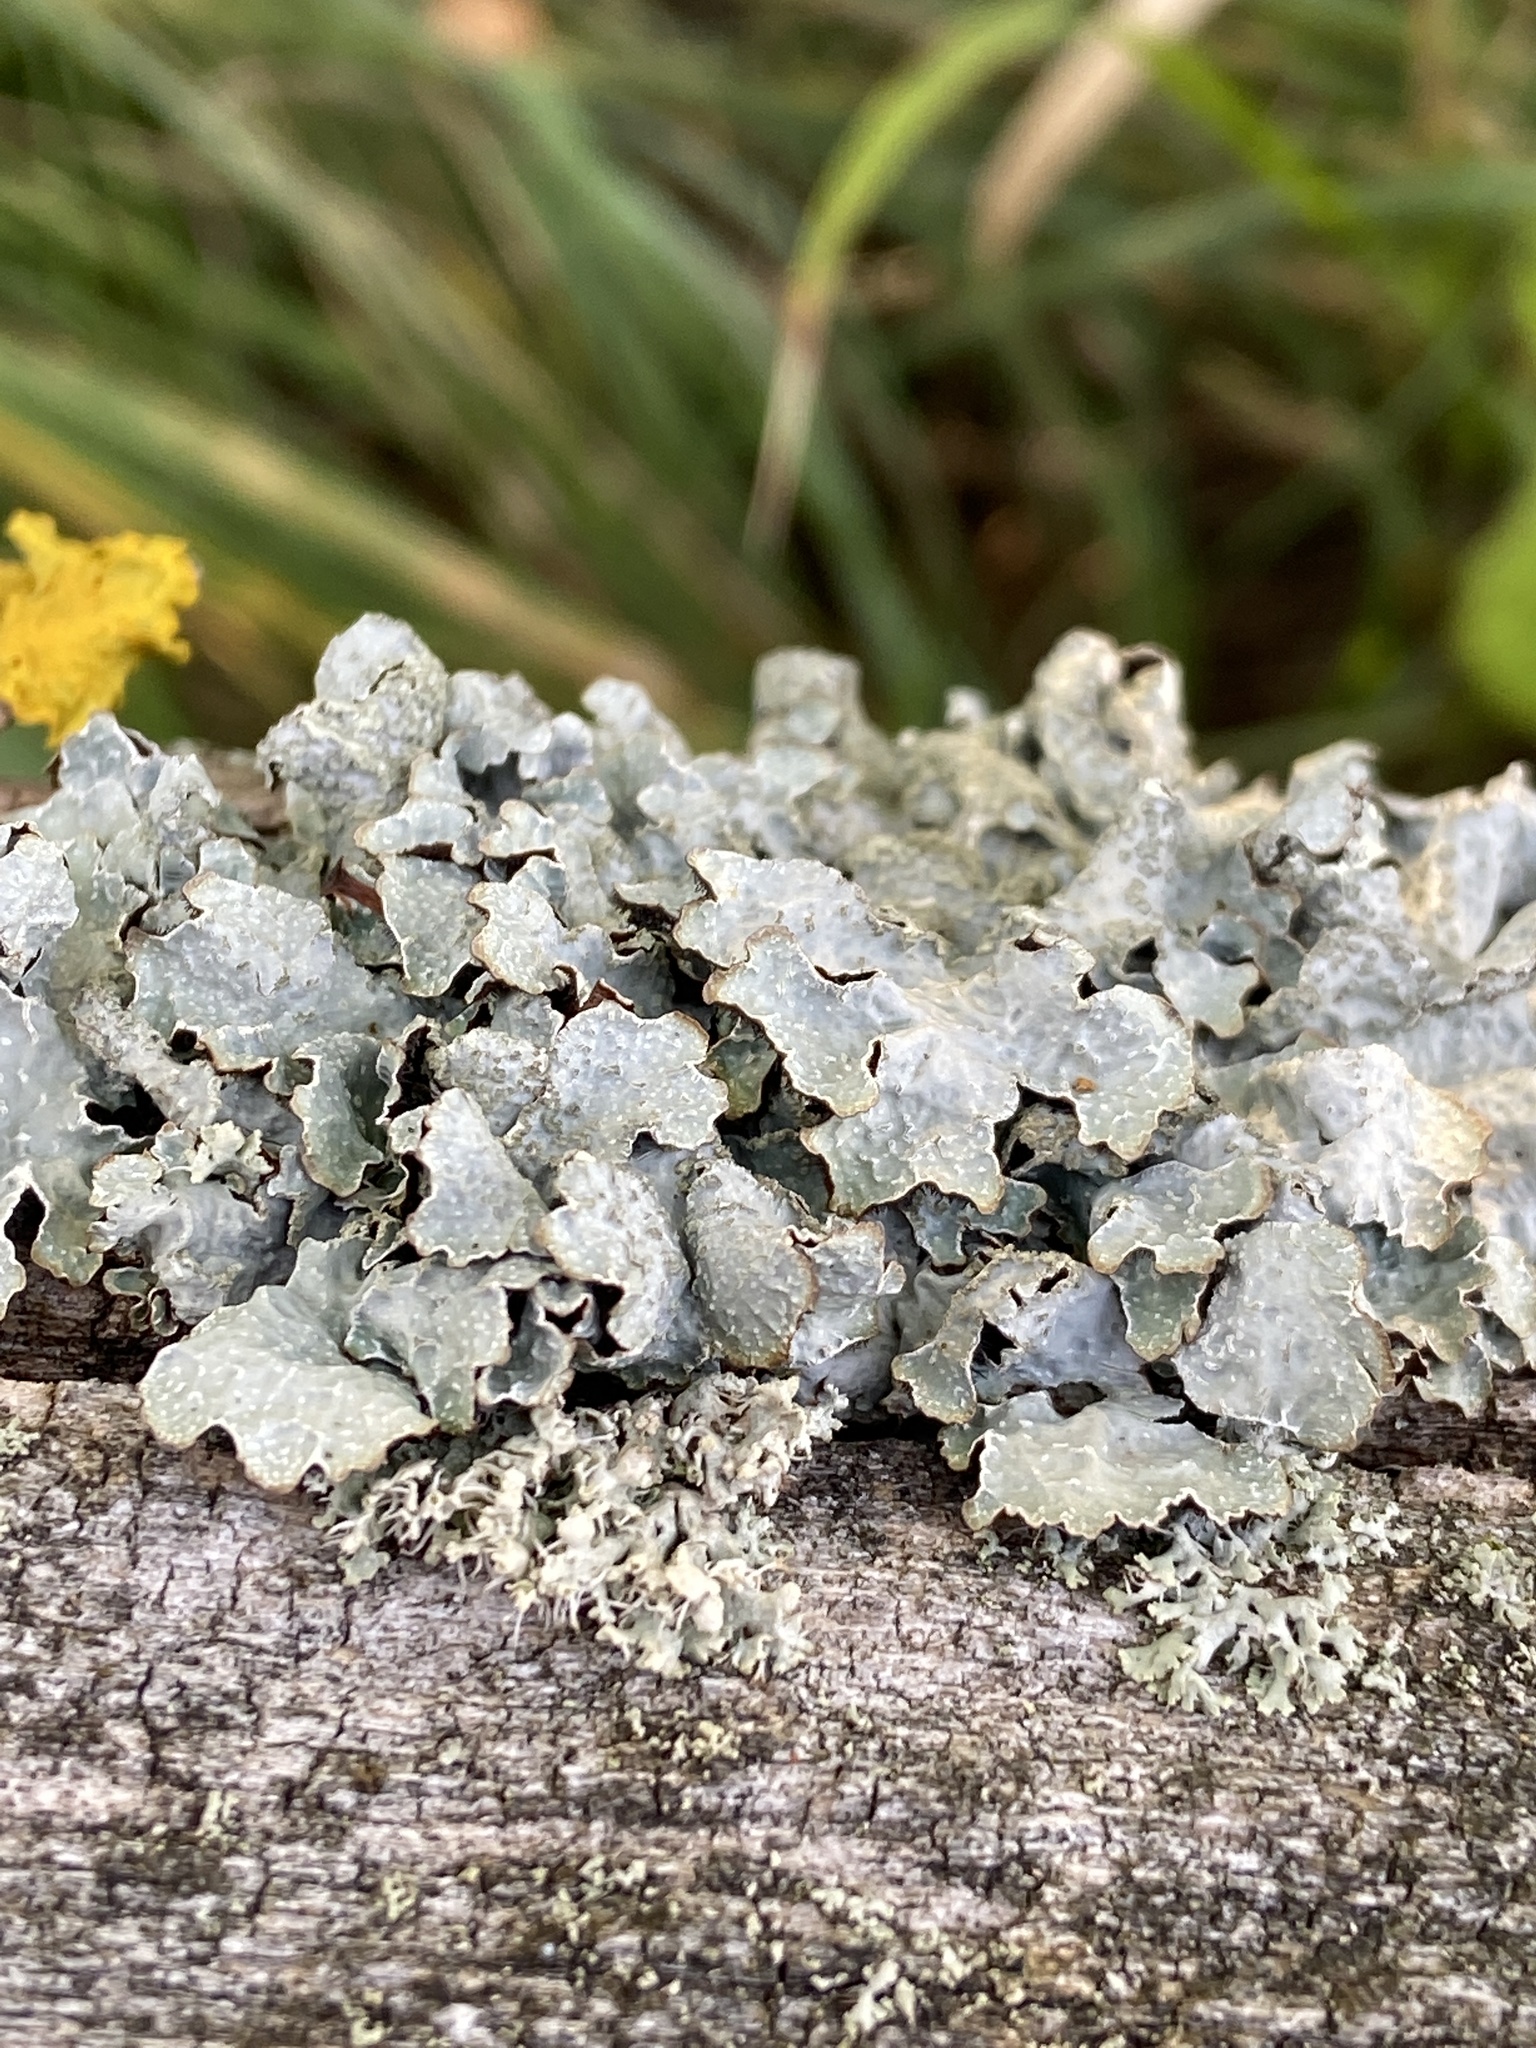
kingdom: Fungi
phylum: Ascomycota
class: Lecanoromycetes
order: Lecanorales
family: Parmeliaceae
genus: Parmelia
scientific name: Parmelia sulcata
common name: Netted shield lichen
